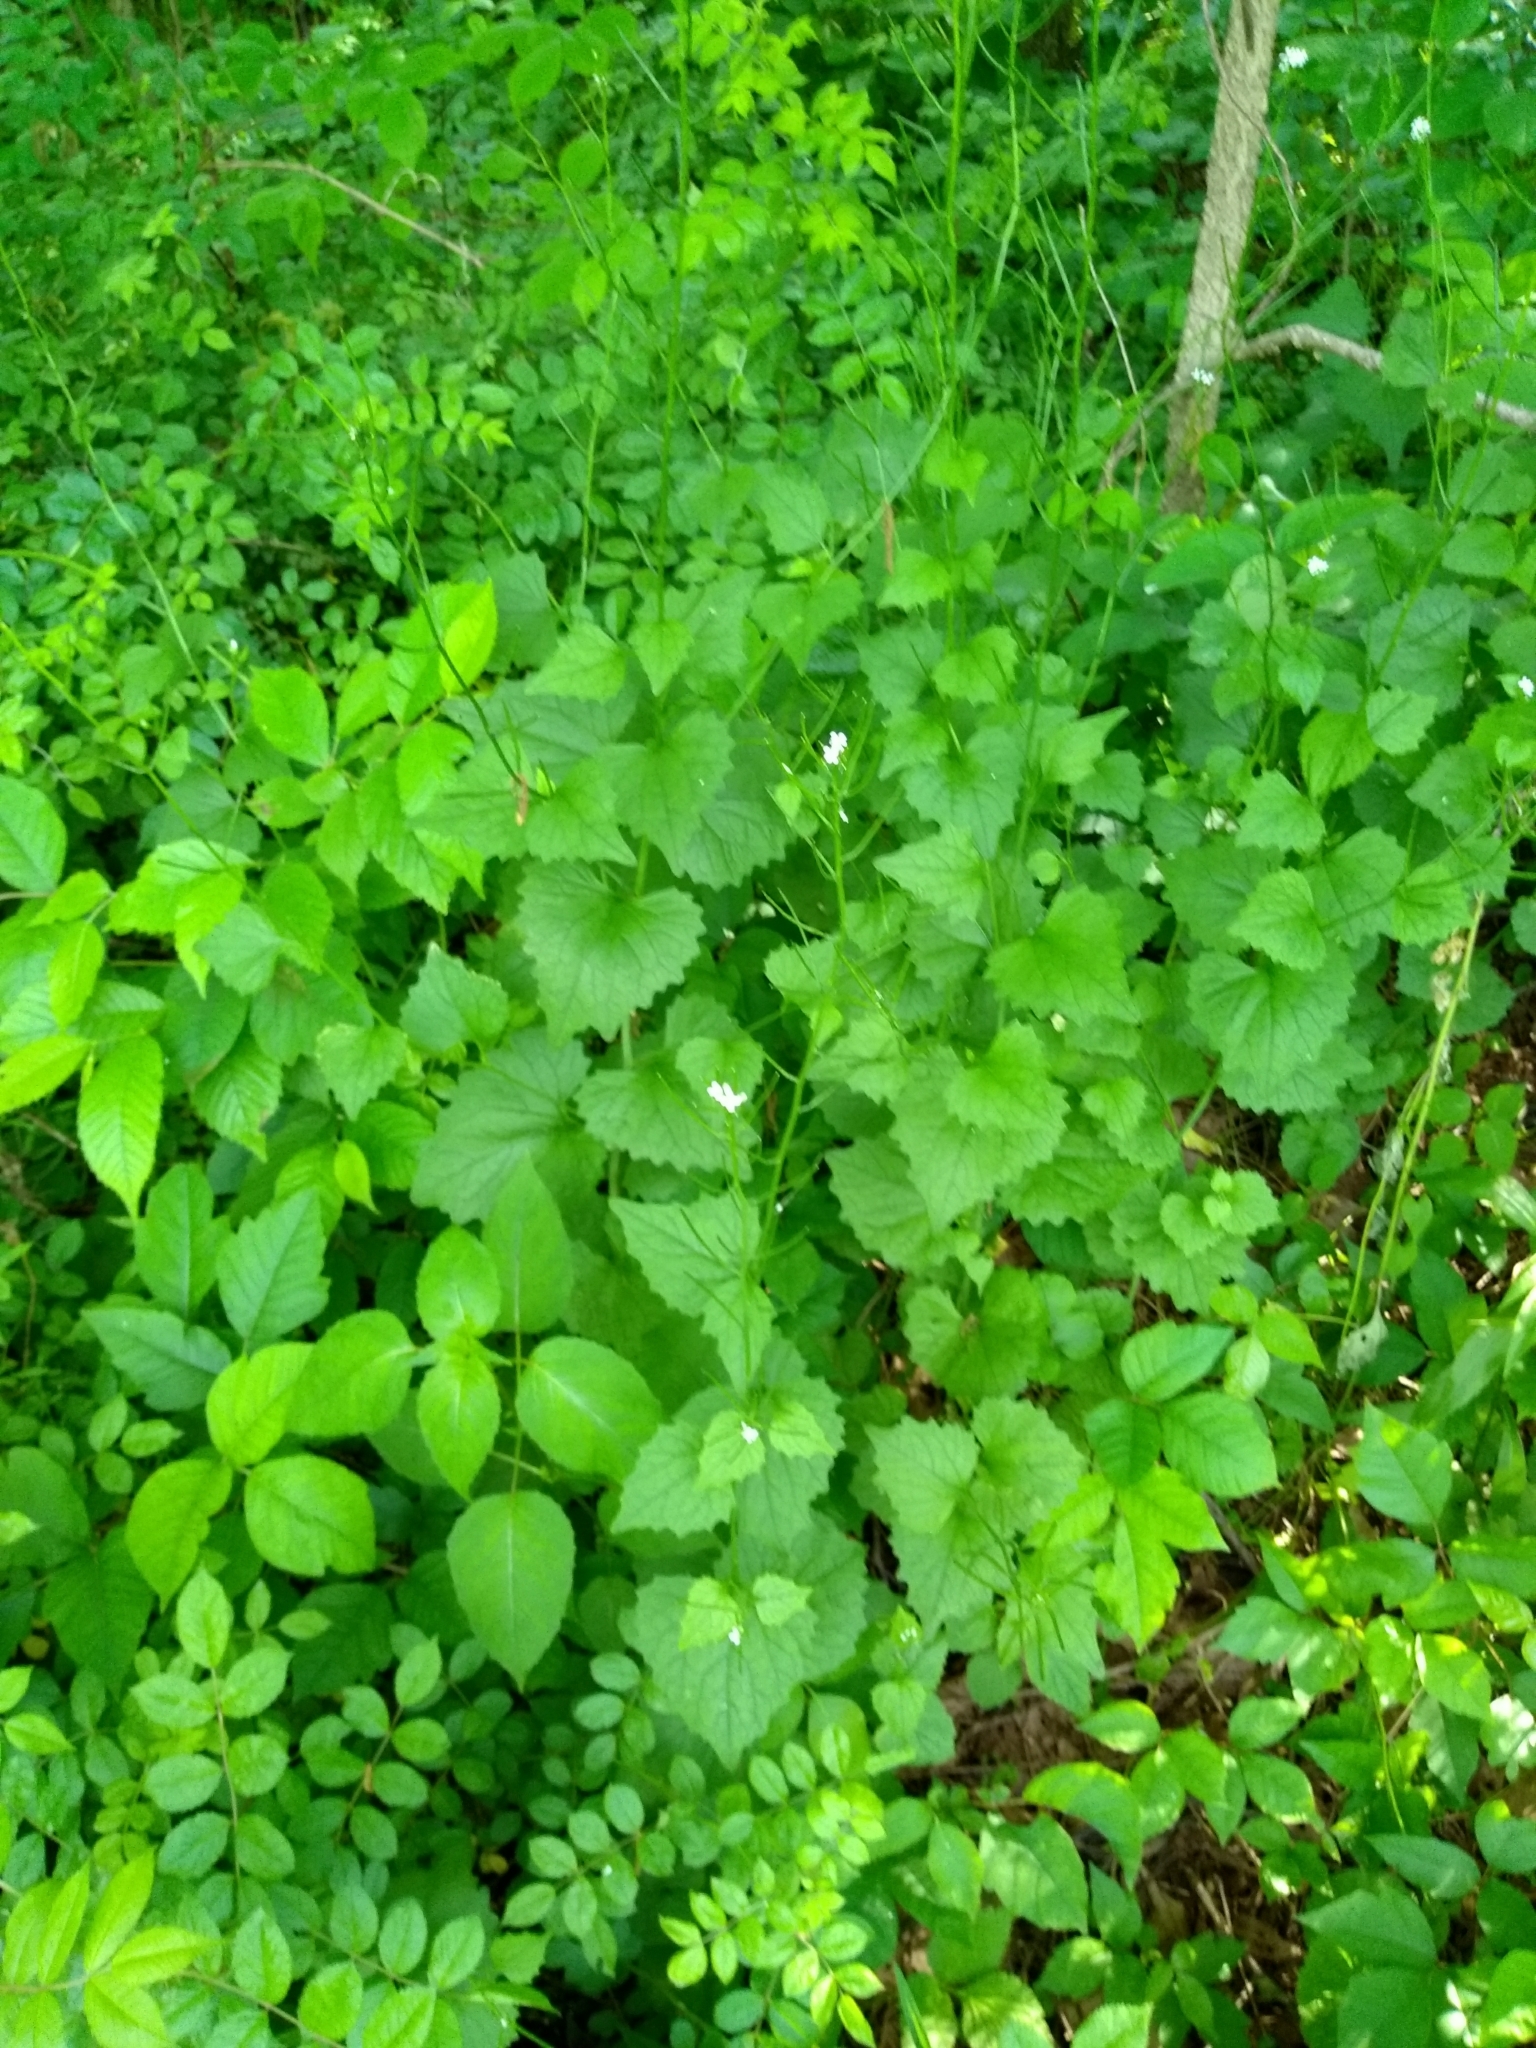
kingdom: Plantae
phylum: Tracheophyta
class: Magnoliopsida
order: Brassicales
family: Brassicaceae
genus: Alliaria
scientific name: Alliaria petiolata
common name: Garlic mustard
